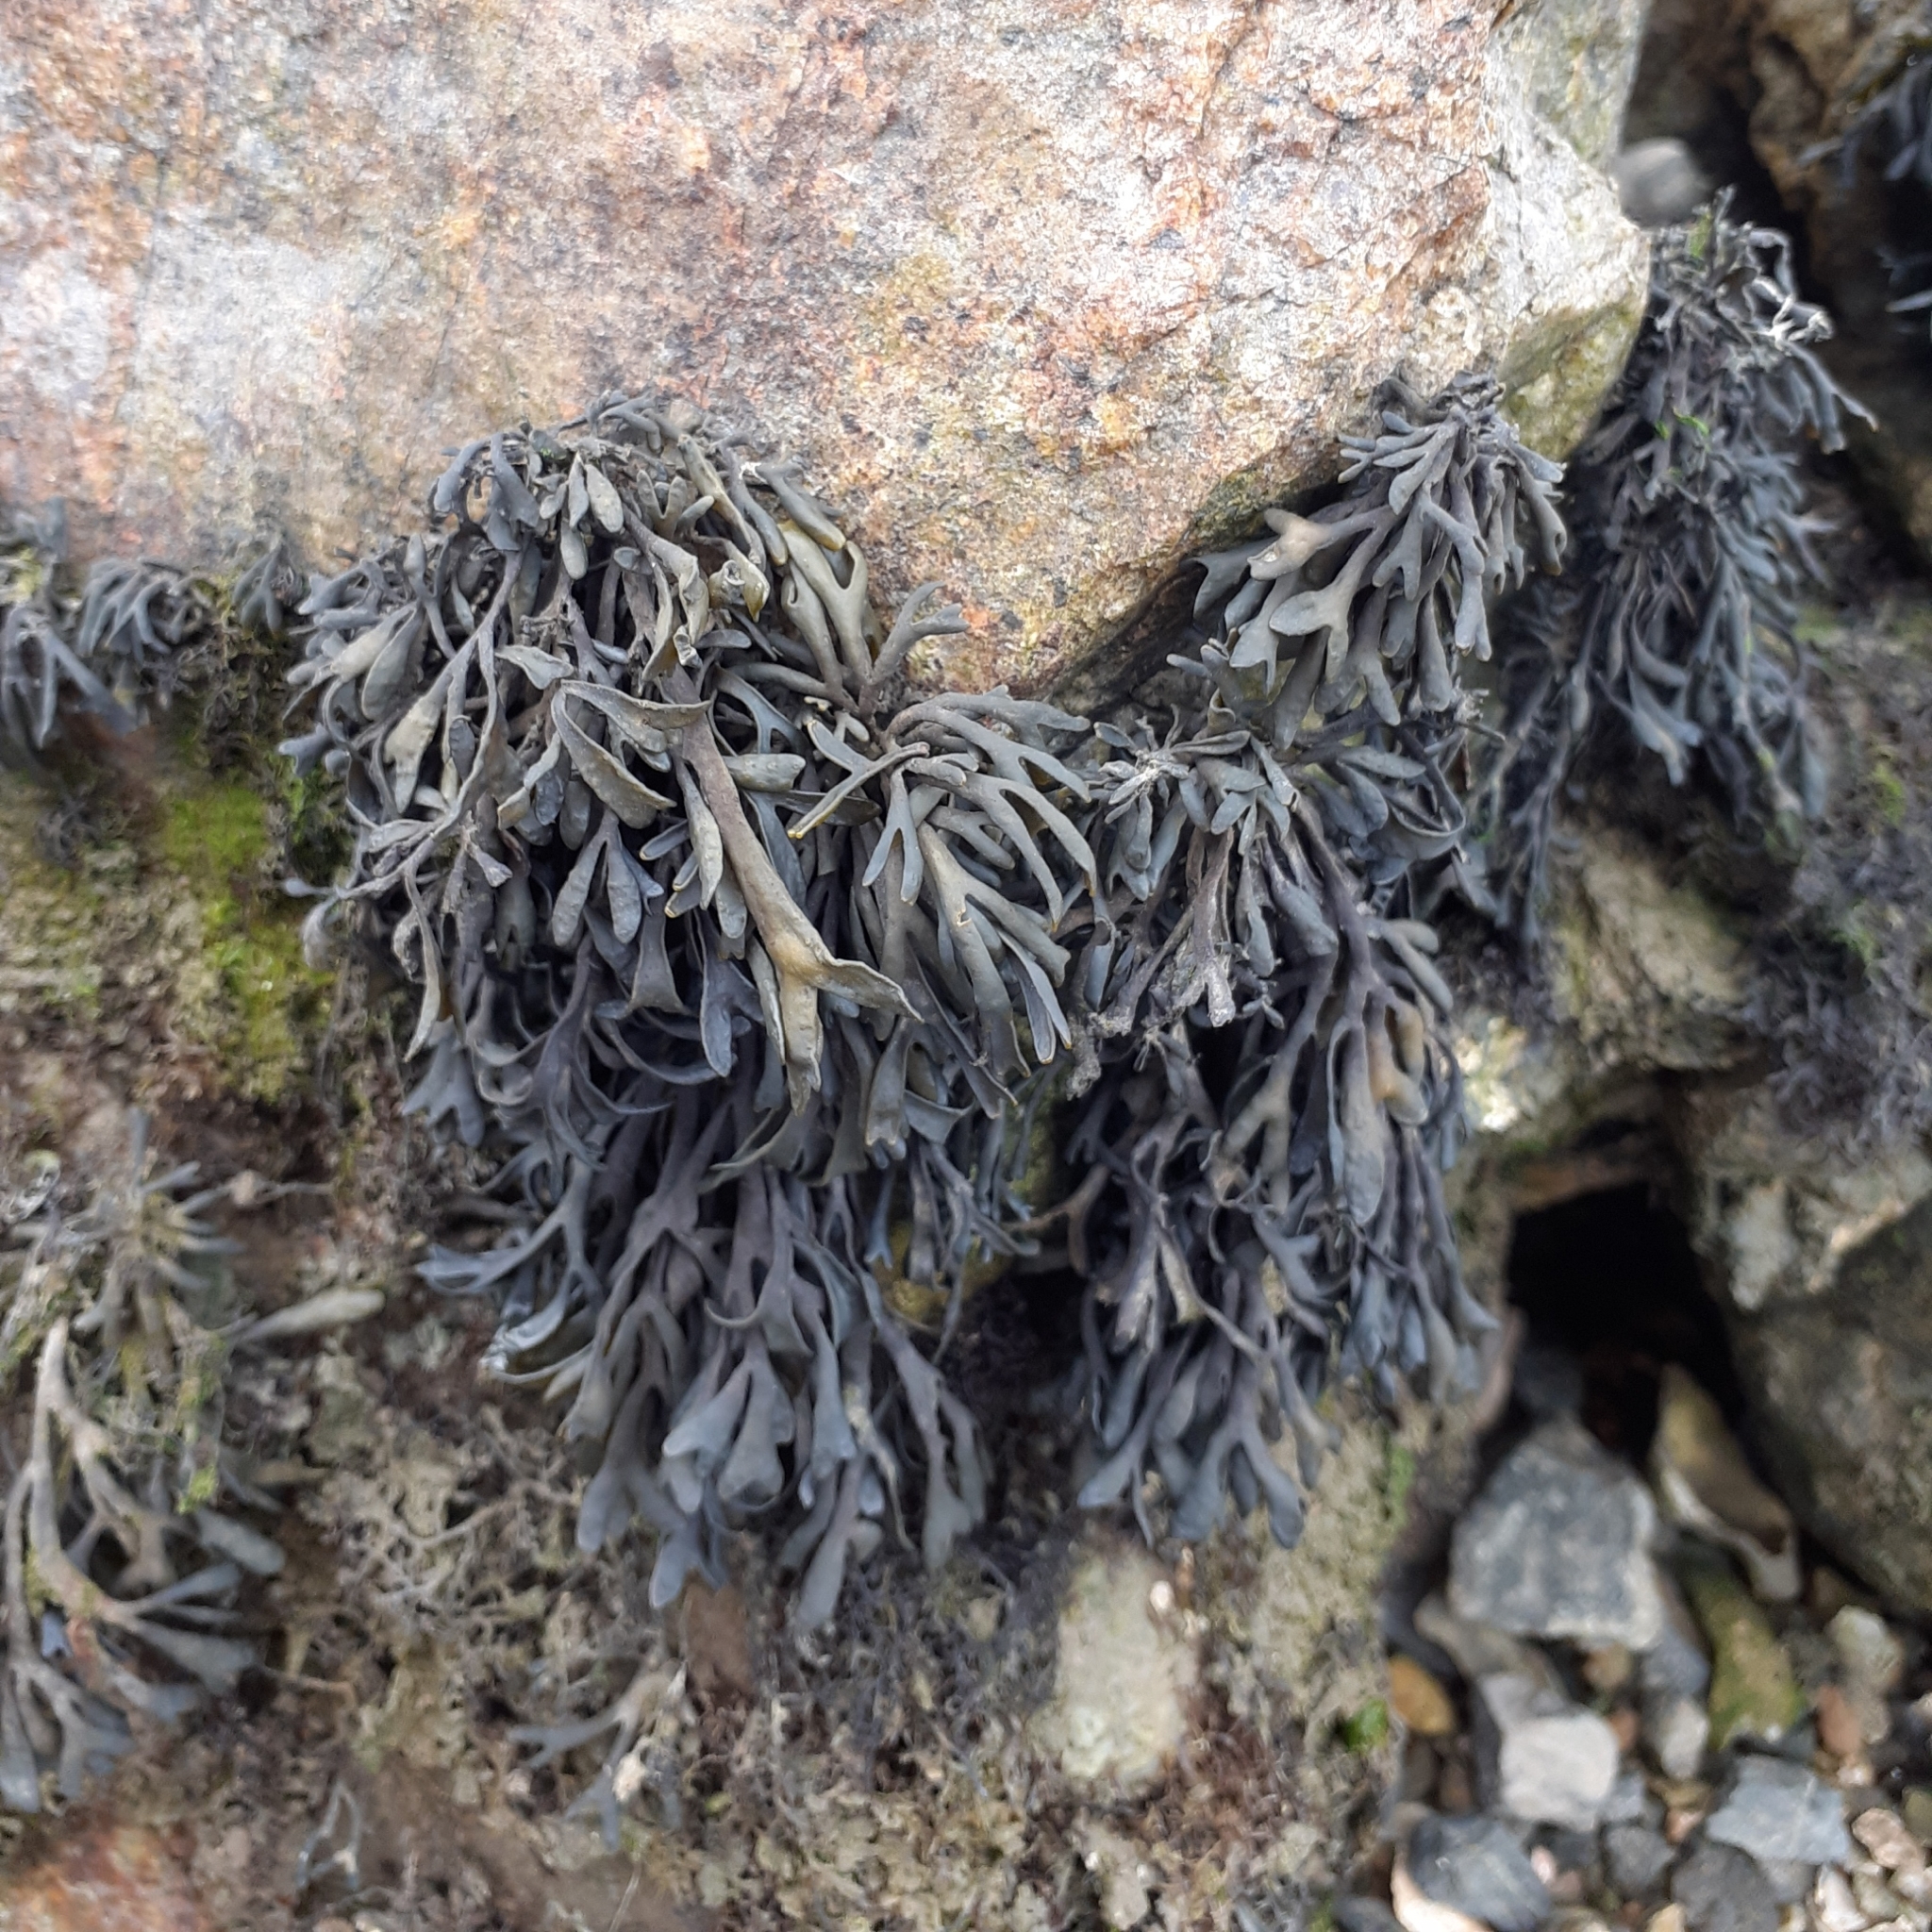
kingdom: Chromista
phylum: Ochrophyta
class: Phaeophyceae
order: Fucales
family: Fucaceae
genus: Pelvetia
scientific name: Pelvetia canaliculata
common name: Channelled wrack
